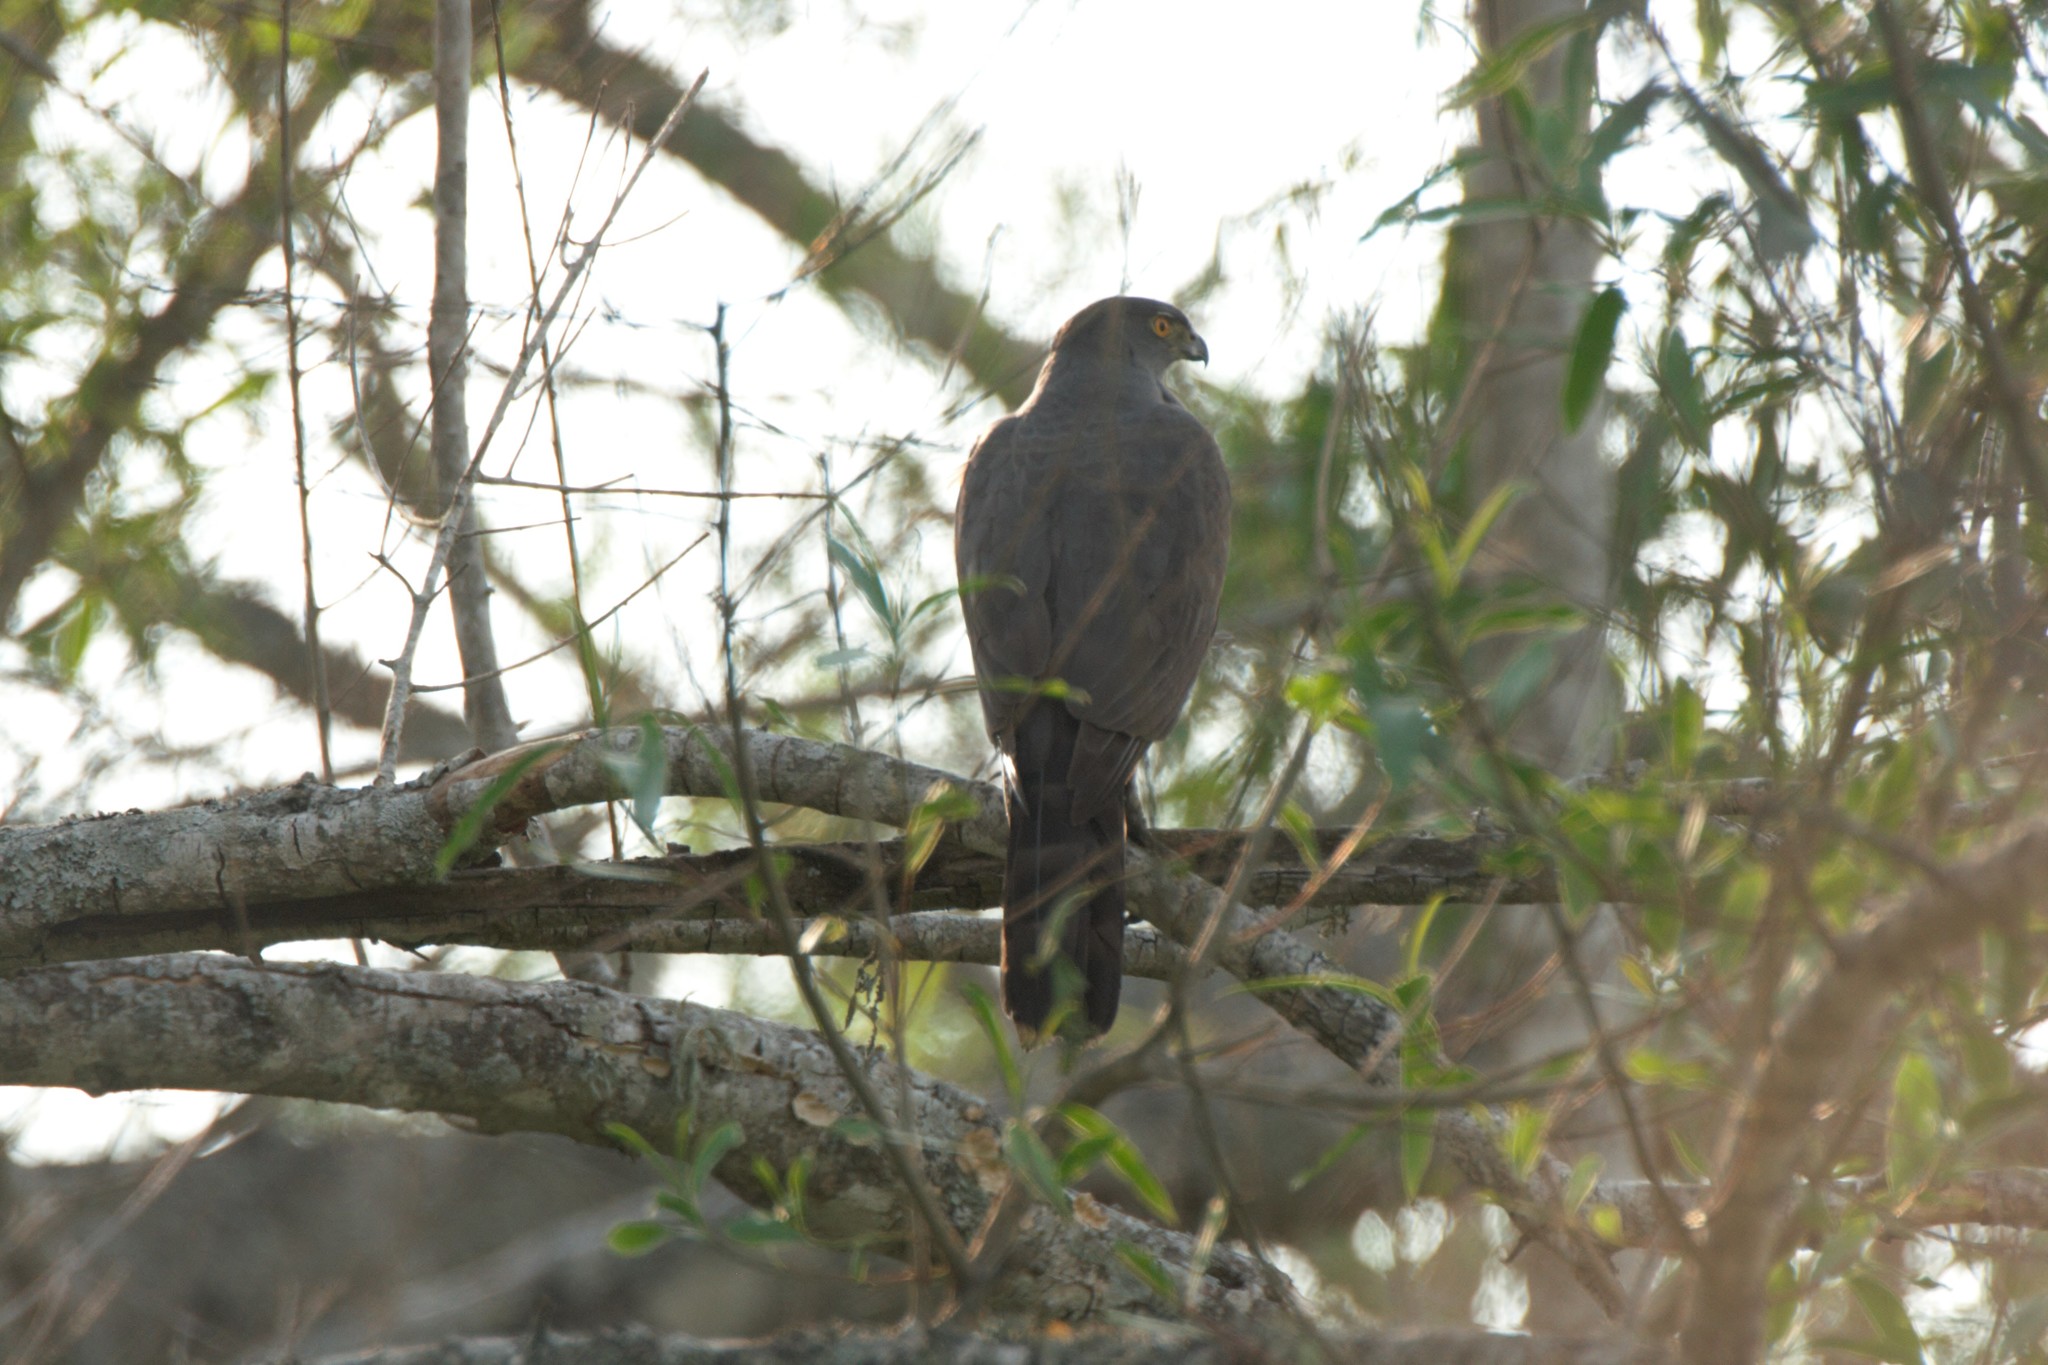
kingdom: Animalia
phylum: Chordata
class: Aves
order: Accipitriformes
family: Accipitridae
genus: Accipiter
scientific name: Accipiter bicolor
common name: Bicolored hawk
